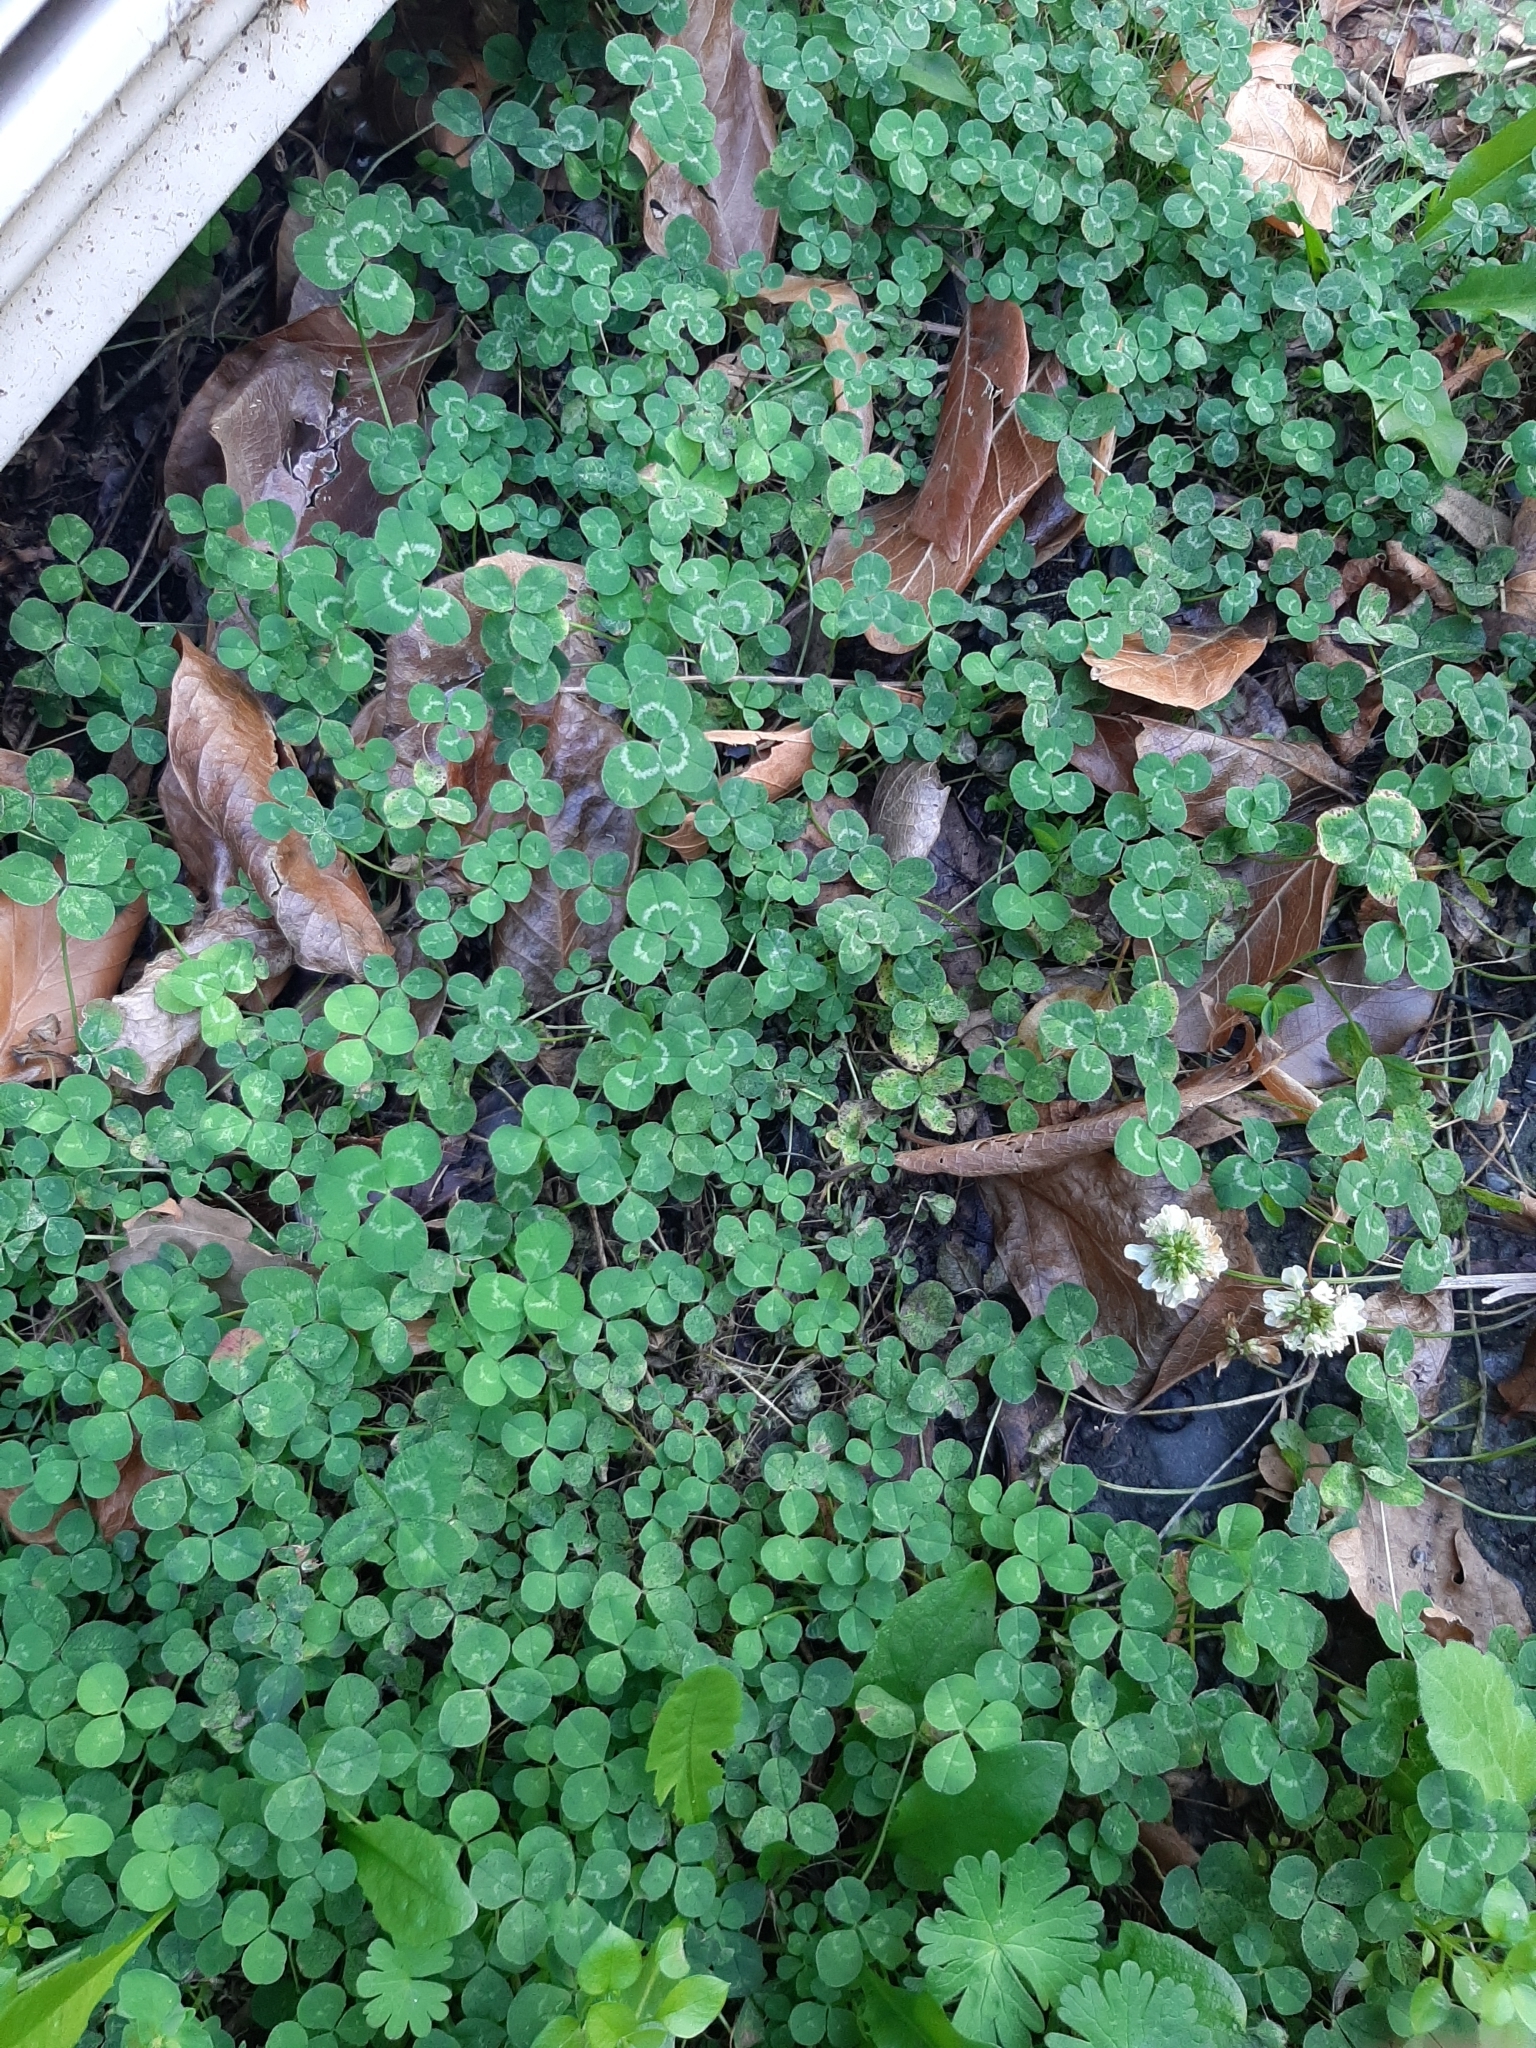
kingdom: Plantae
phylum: Tracheophyta
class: Magnoliopsida
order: Fabales
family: Fabaceae
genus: Trifolium
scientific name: Trifolium repens
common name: White clover
